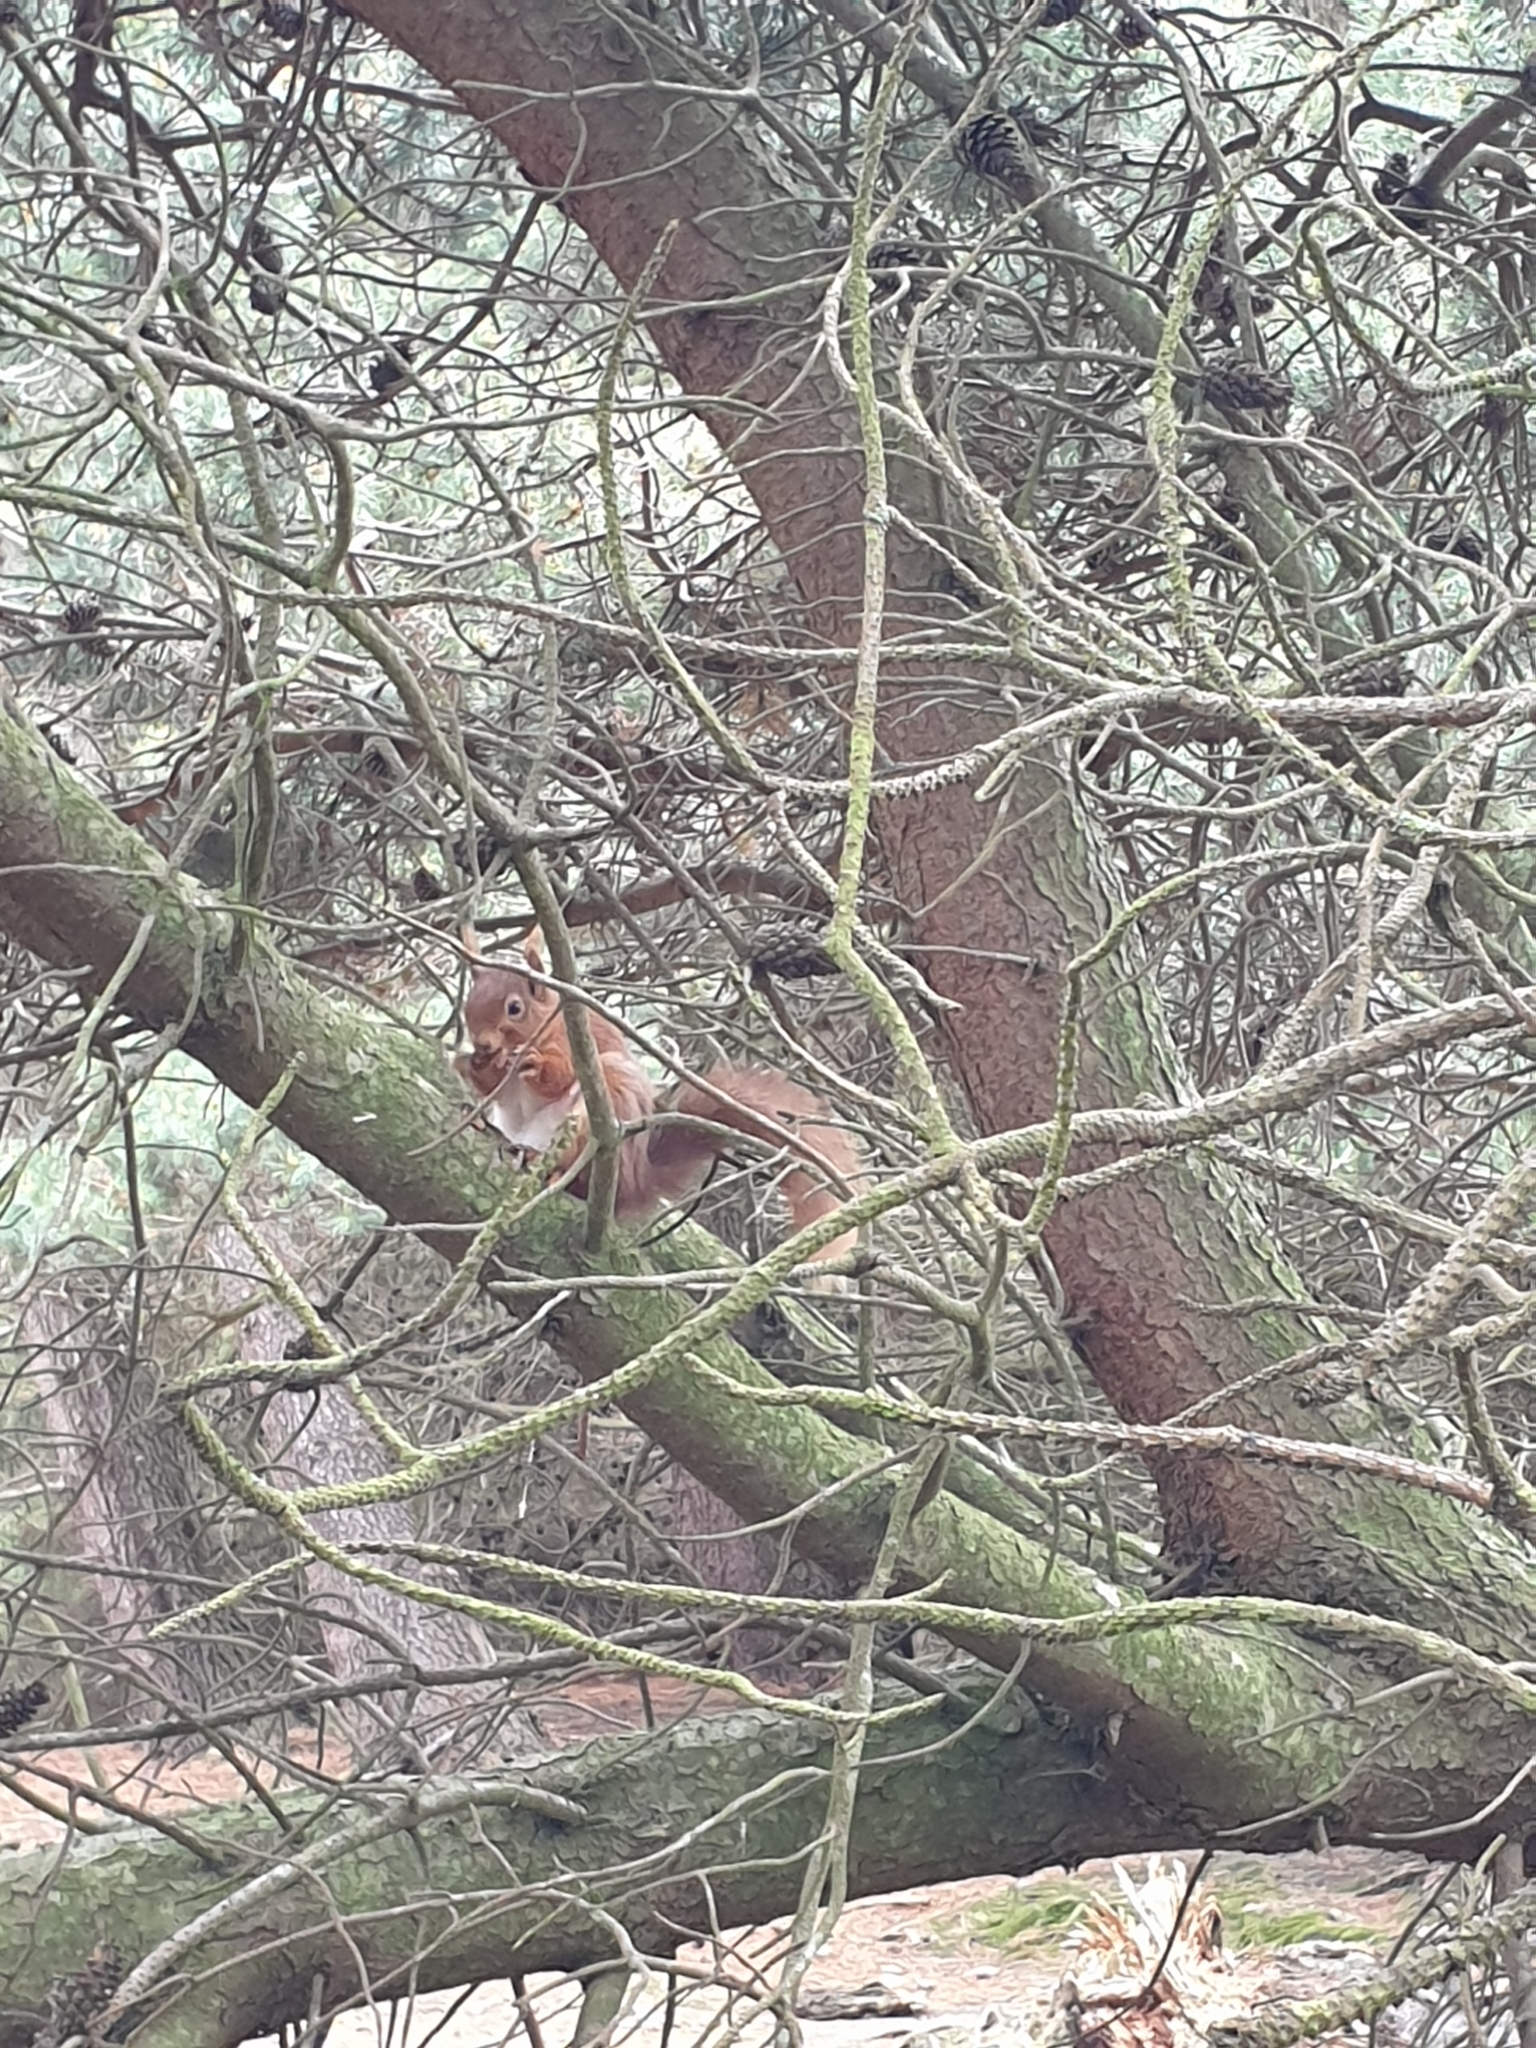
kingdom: Animalia
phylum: Chordata
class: Mammalia
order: Rodentia
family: Sciuridae
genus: Sciurus
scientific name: Sciurus vulgaris
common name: Eurasian red squirrel
